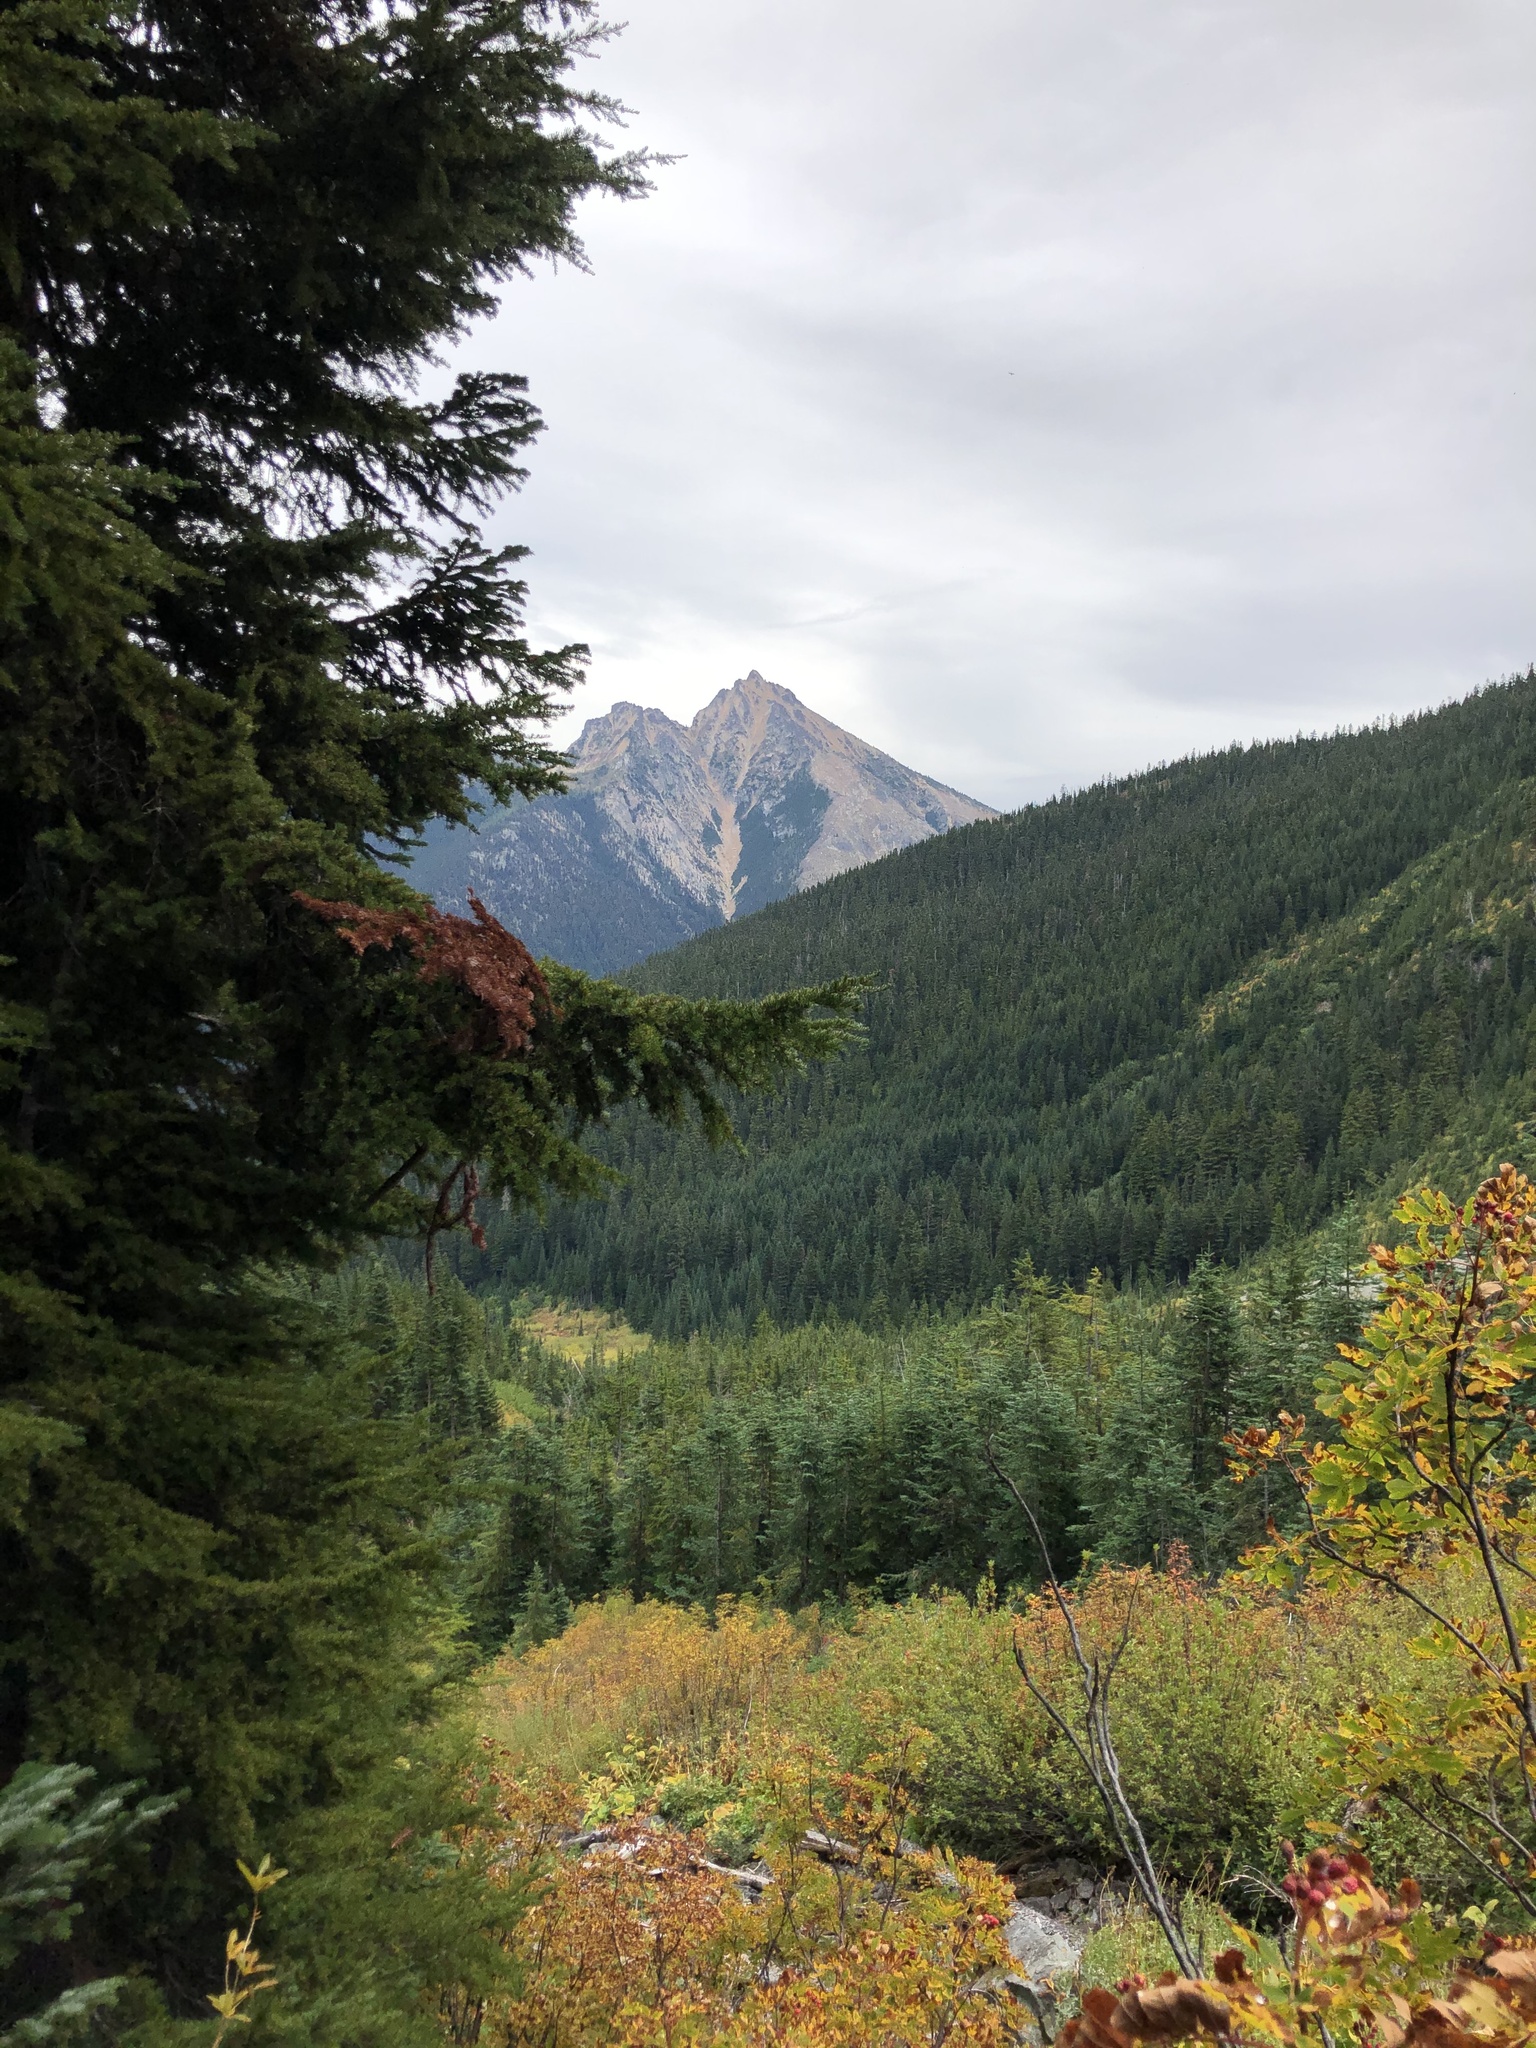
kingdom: Plantae
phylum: Tracheophyta
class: Pinopsida
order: Pinales
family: Pinaceae
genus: Tsuga
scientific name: Tsuga mertensiana
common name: Mountain hemlock
